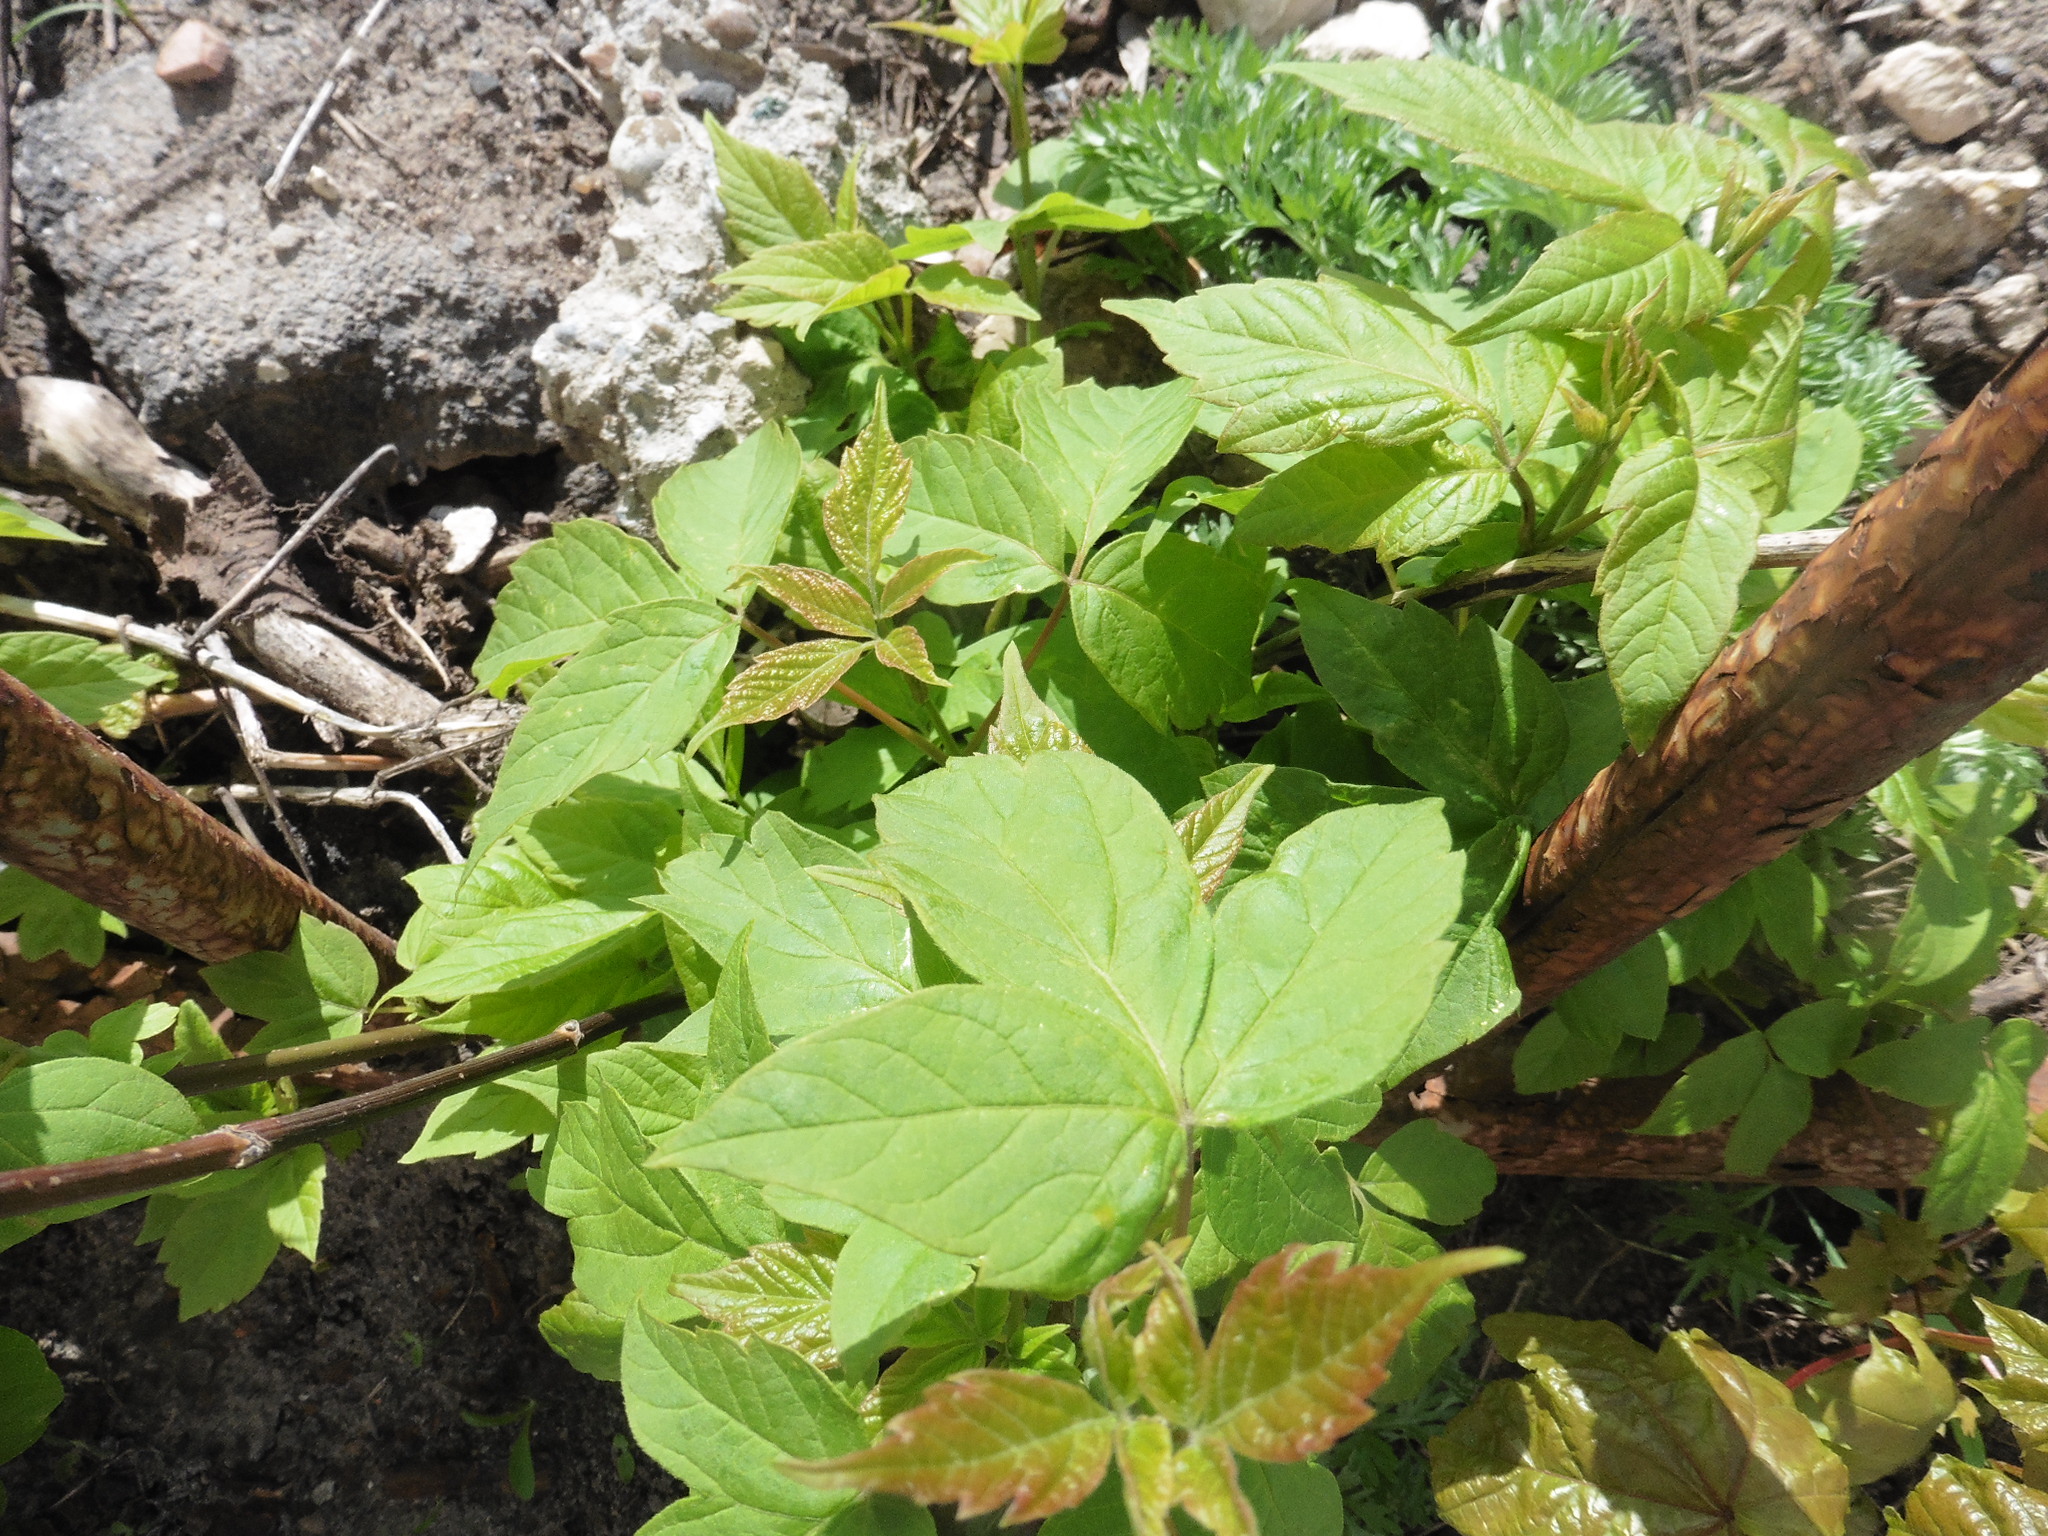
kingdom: Plantae
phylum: Tracheophyta
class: Magnoliopsida
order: Sapindales
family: Sapindaceae
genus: Acer
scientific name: Acer negundo
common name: Ashleaf maple
